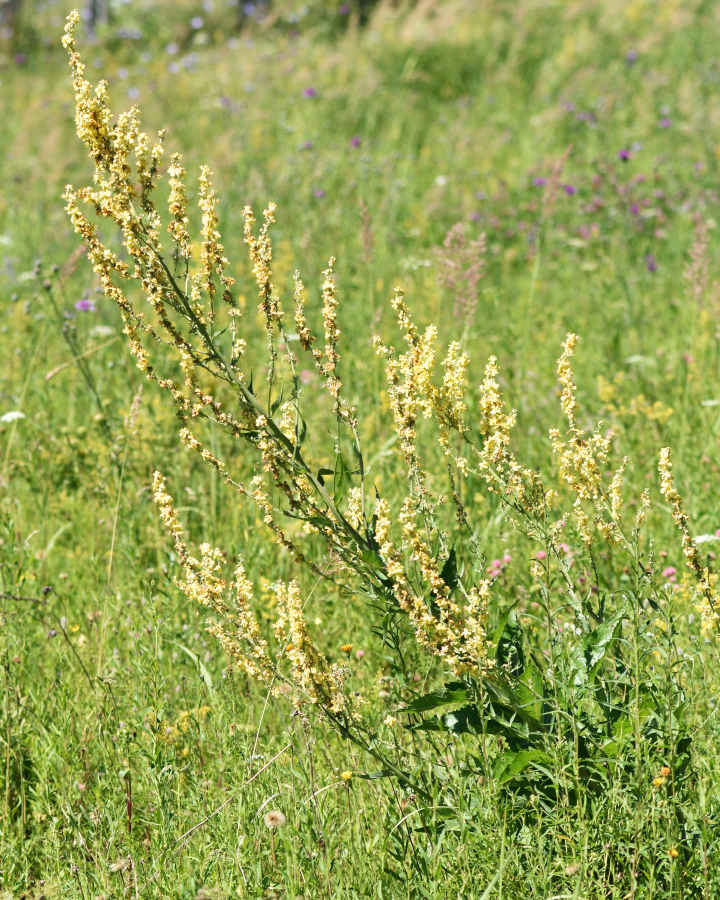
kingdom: Plantae
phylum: Tracheophyta
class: Magnoliopsida
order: Lamiales
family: Scrophulariaceae
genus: Verbascum
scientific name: Verbascum lychnitis
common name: White mullein
